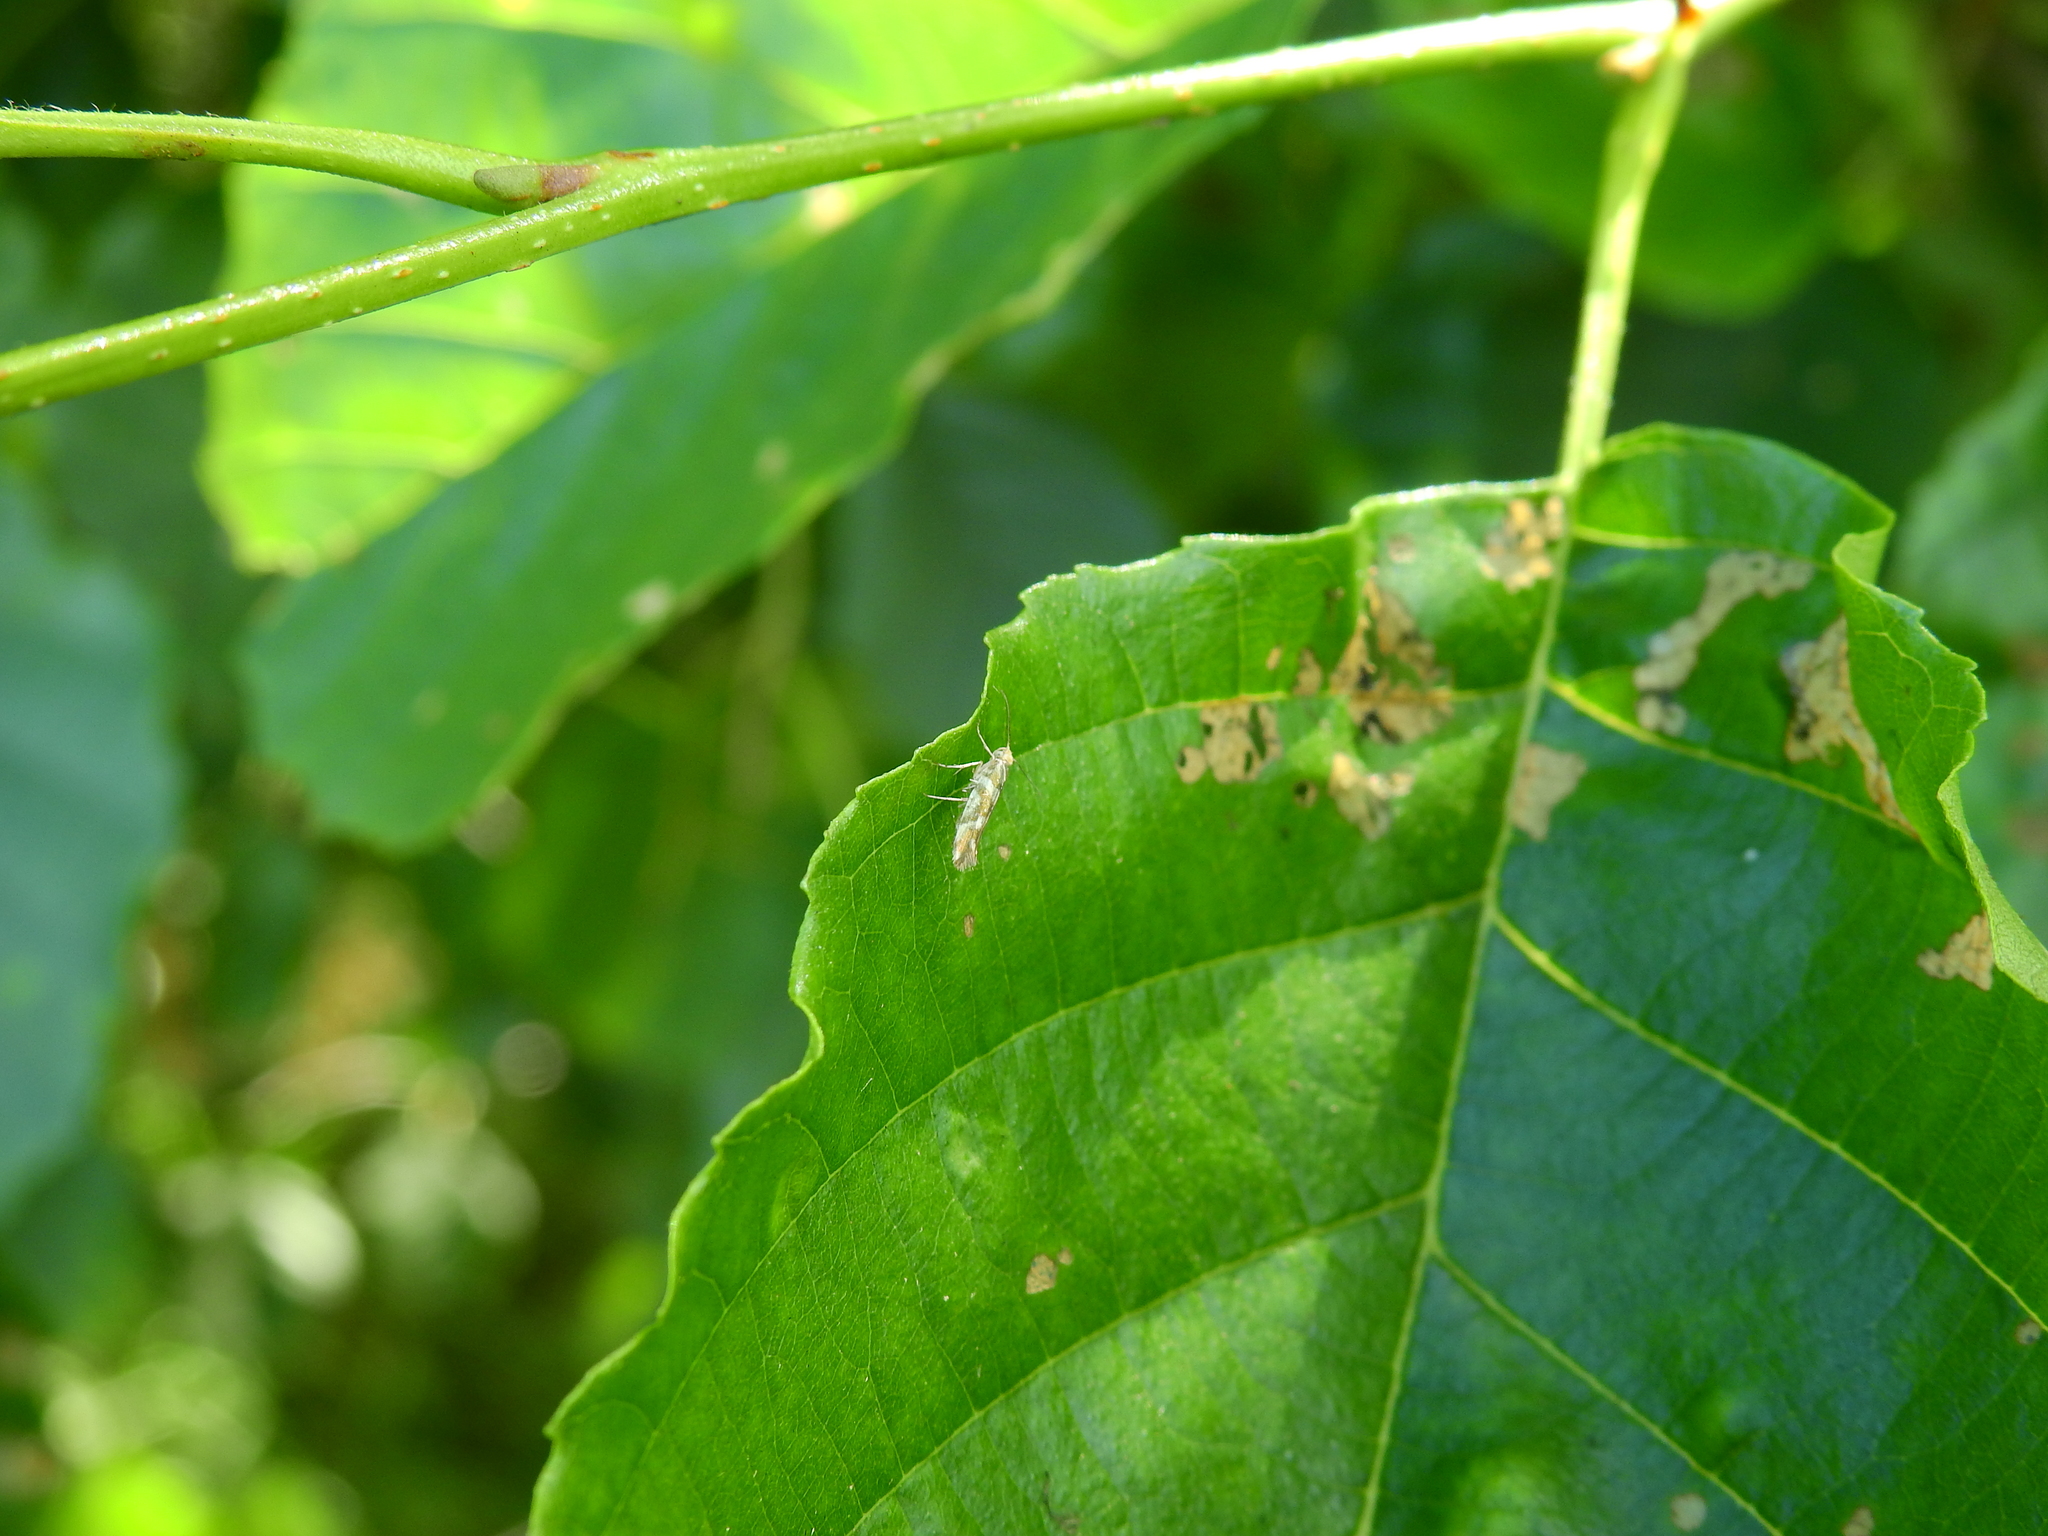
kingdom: Animalia
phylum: Arthropoda
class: Insecta
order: Lepidoptera
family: Argyresthiidae
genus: Argyresthia
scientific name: Argyresthia goedartella
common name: Golden argent
